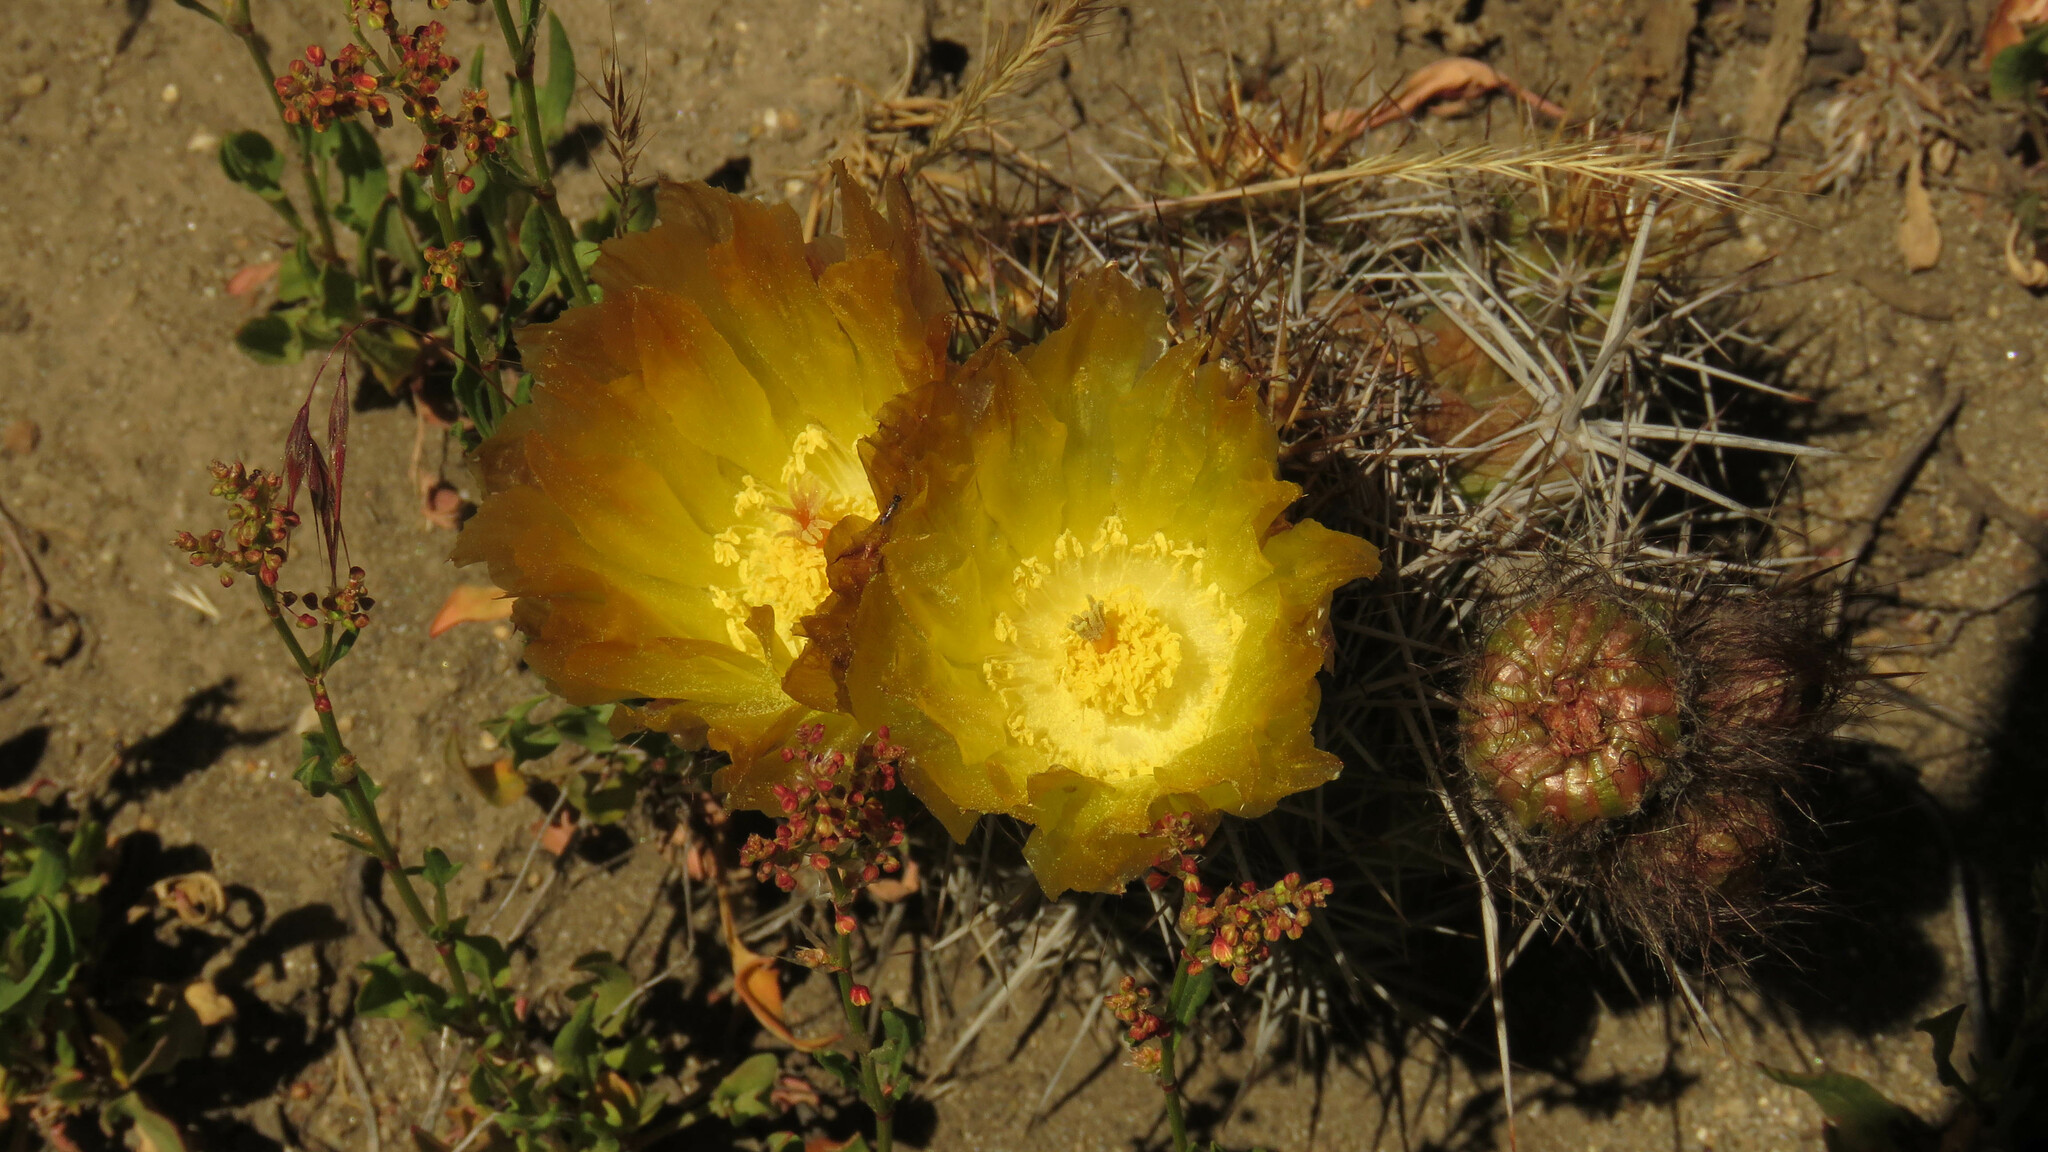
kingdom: Plantae
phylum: Tracheophyta
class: Magnoliopsida
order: Caryophyllales
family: Cactaceae
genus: Austrocactus
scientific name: Austrocactus coxii
